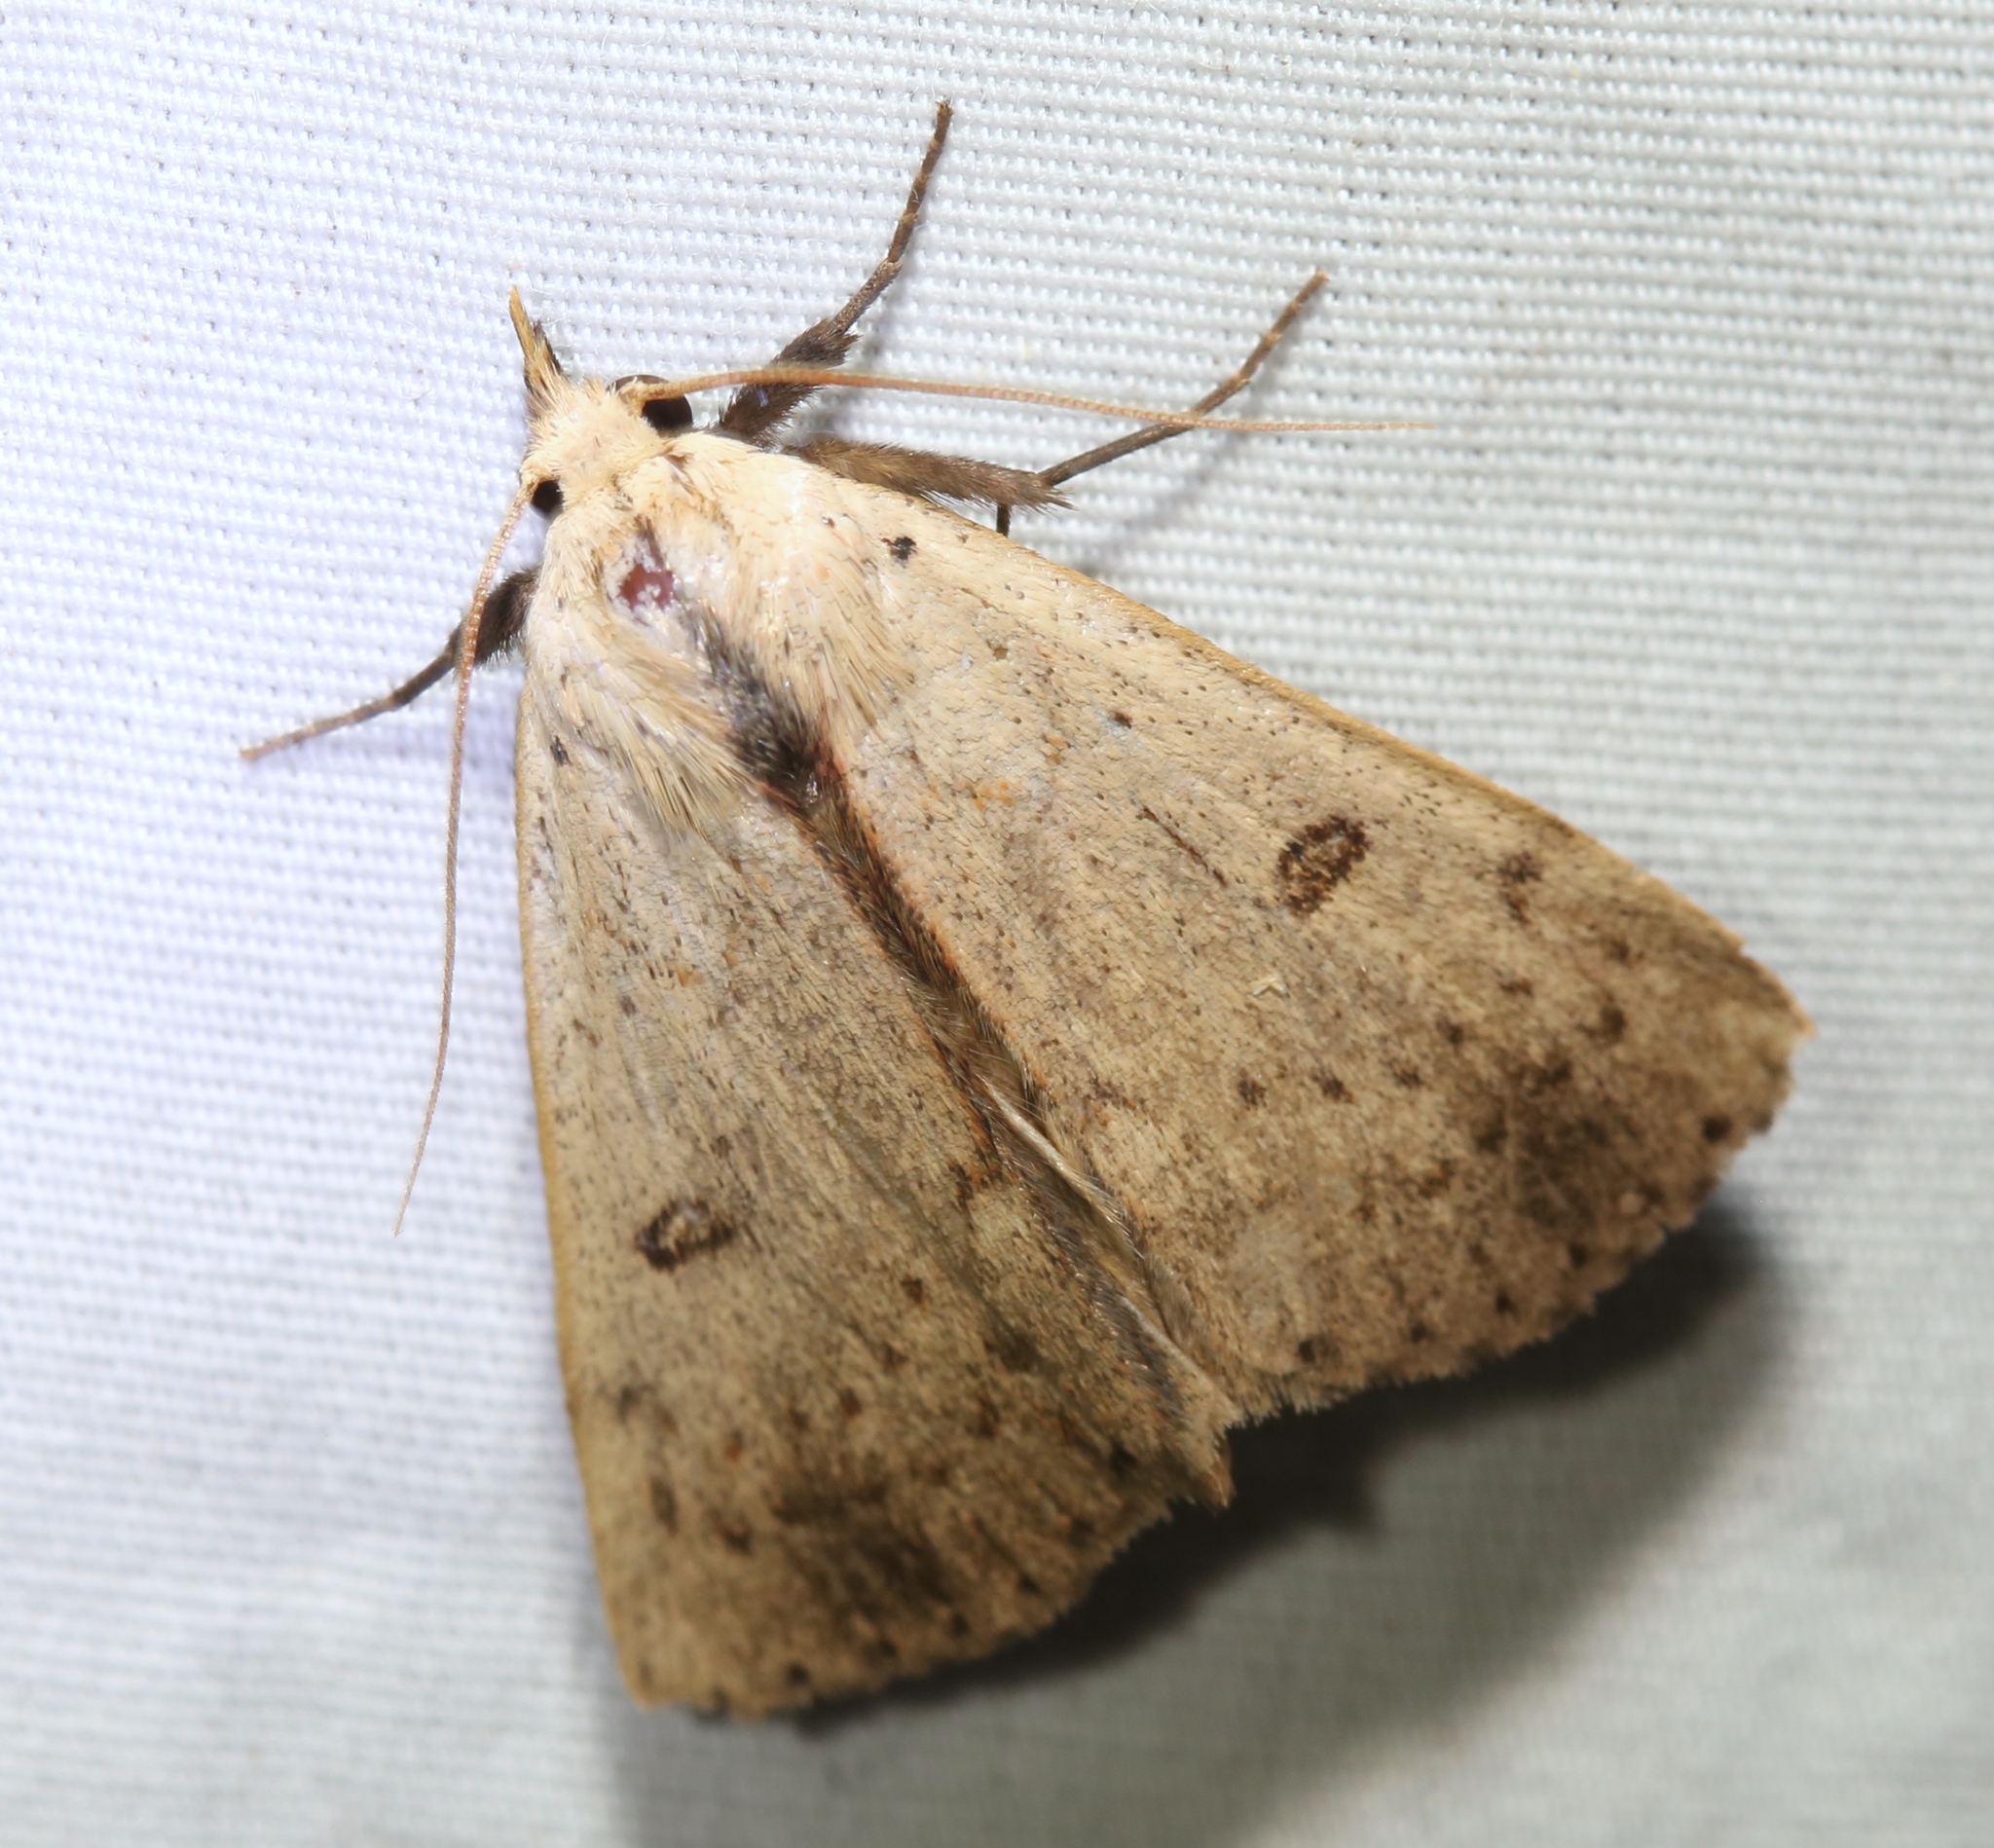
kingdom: Animalia
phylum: Arthropoda
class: Insecta
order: Lepidoptera
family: Erebidae
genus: Scolecocampa
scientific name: Scolecocampa liburna
